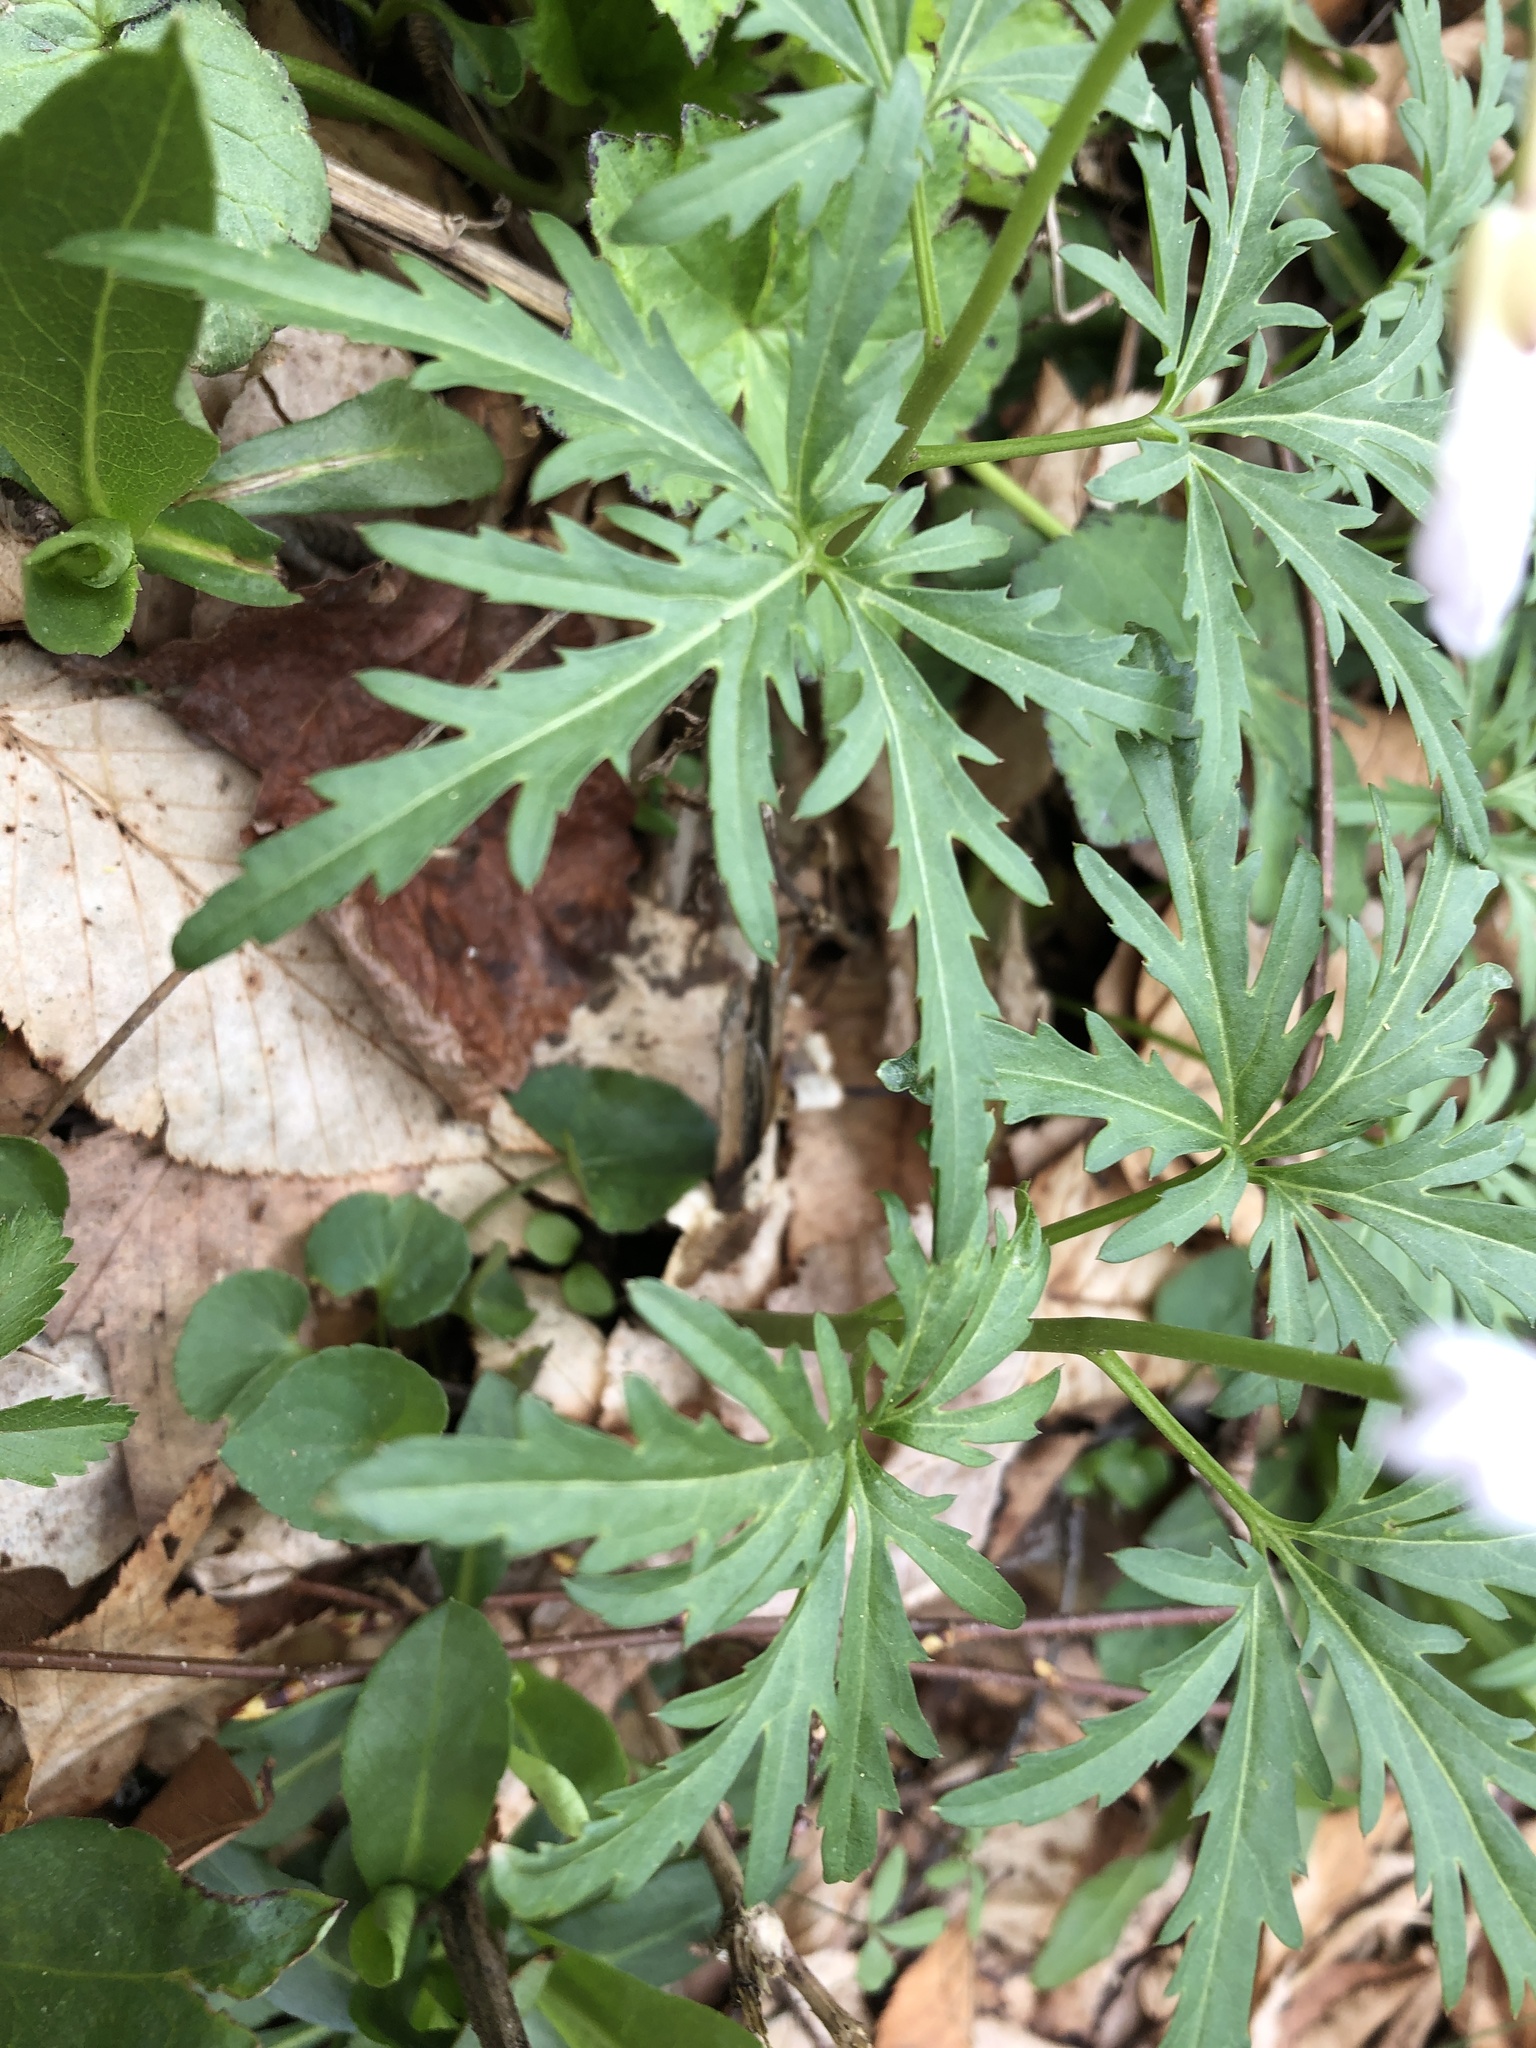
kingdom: Plantae
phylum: Tracheophyta
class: Magnoliopsida
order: Brassicales
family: Brassicaceae
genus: Cardamine
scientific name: Cardamine concatenata
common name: Cut-leaf toothcup
